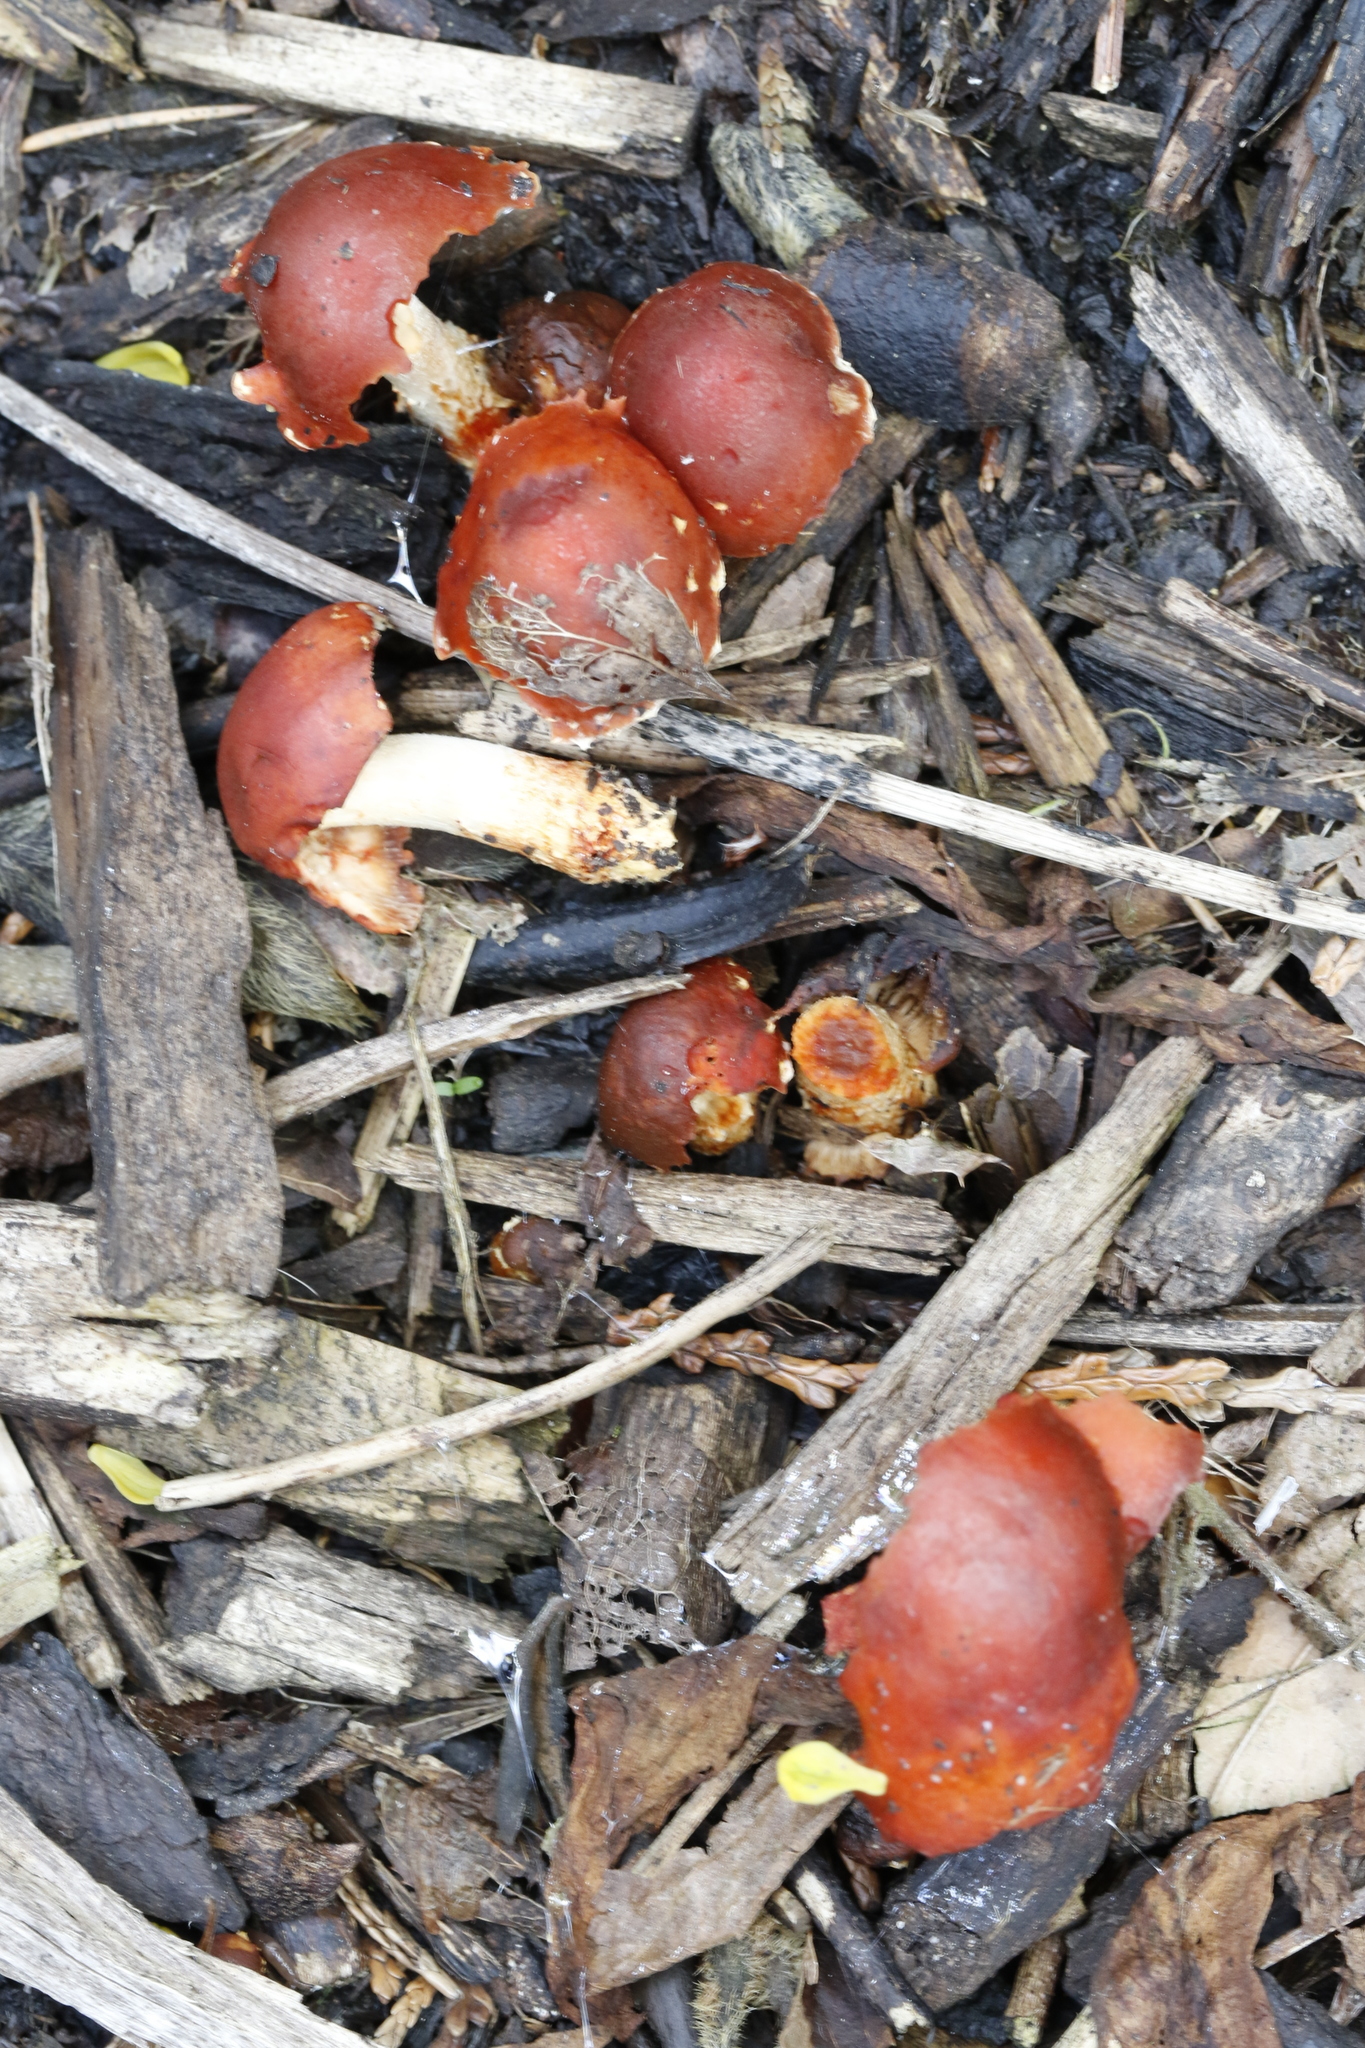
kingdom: Fungi
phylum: Basidiomycota
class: Agaricomycetes
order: Agaricales
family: Strophariaceae
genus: Leratiomyces
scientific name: Leratiomyces ceres
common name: Redlead roundhead
